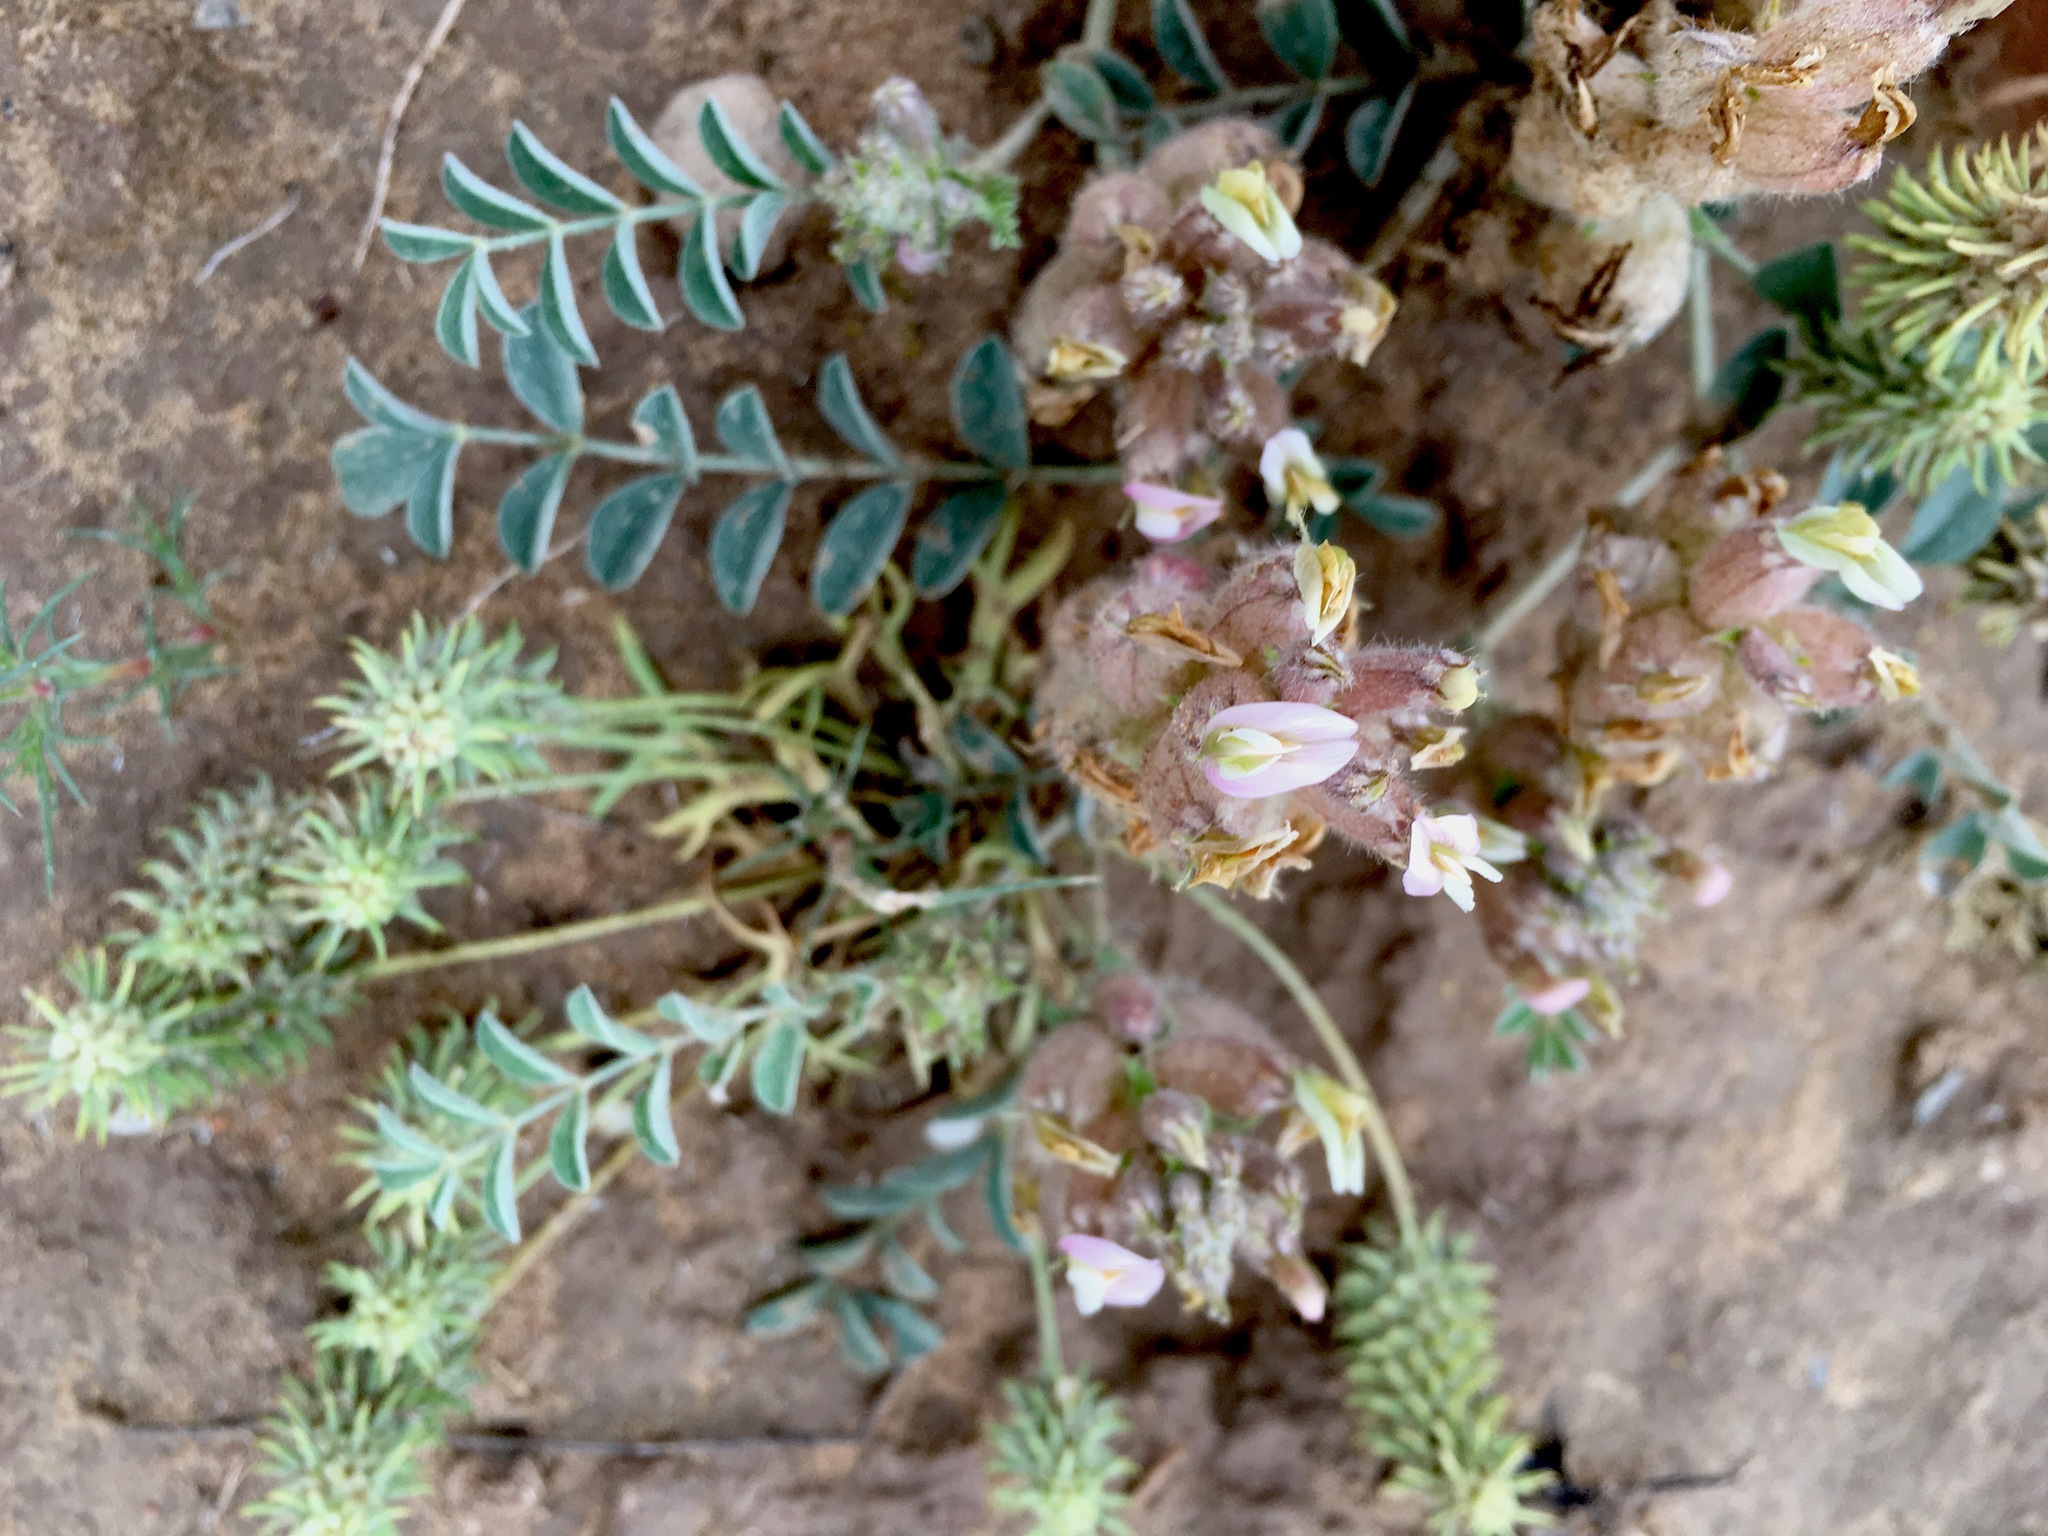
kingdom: Plantae
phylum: Tracheophyta
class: Magnoliopsida
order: Fabales
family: Fabaceae
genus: Astragalus
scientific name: Astragalus chaetodon
